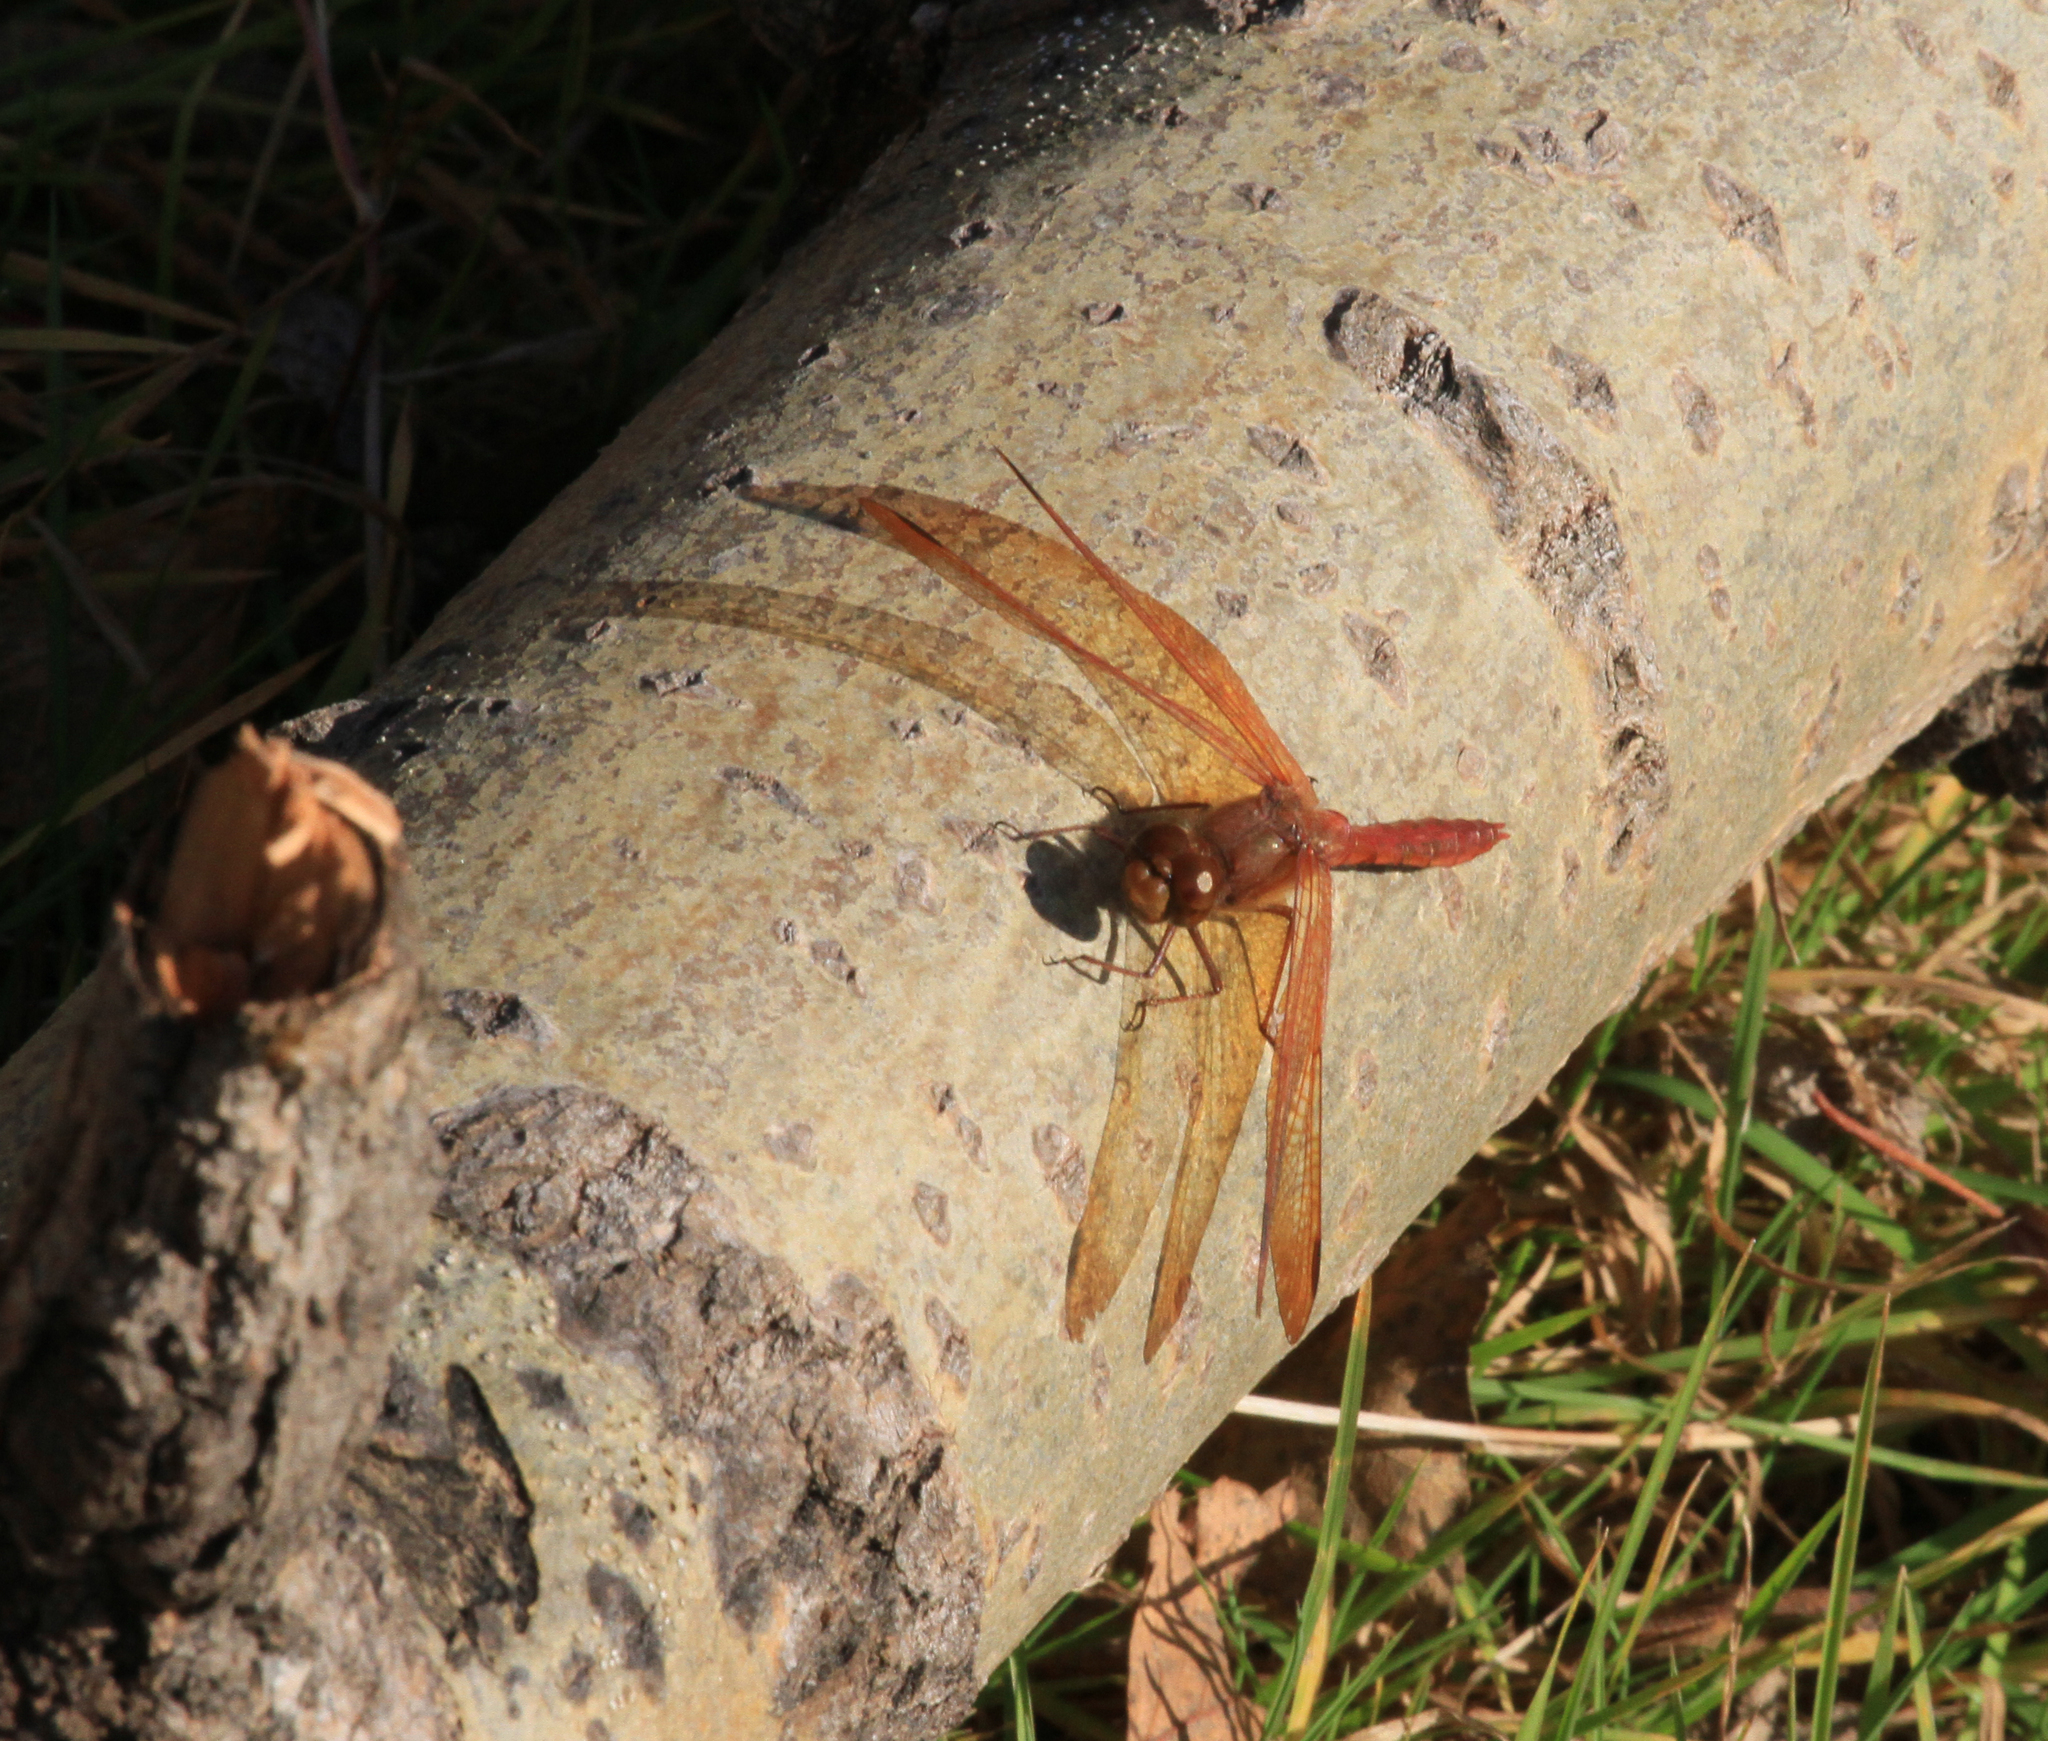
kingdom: Animalia
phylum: Arthropoda
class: Insecta
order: Odonata
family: Libellulidae
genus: Sympetrum
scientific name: Sympetrum croceolum
